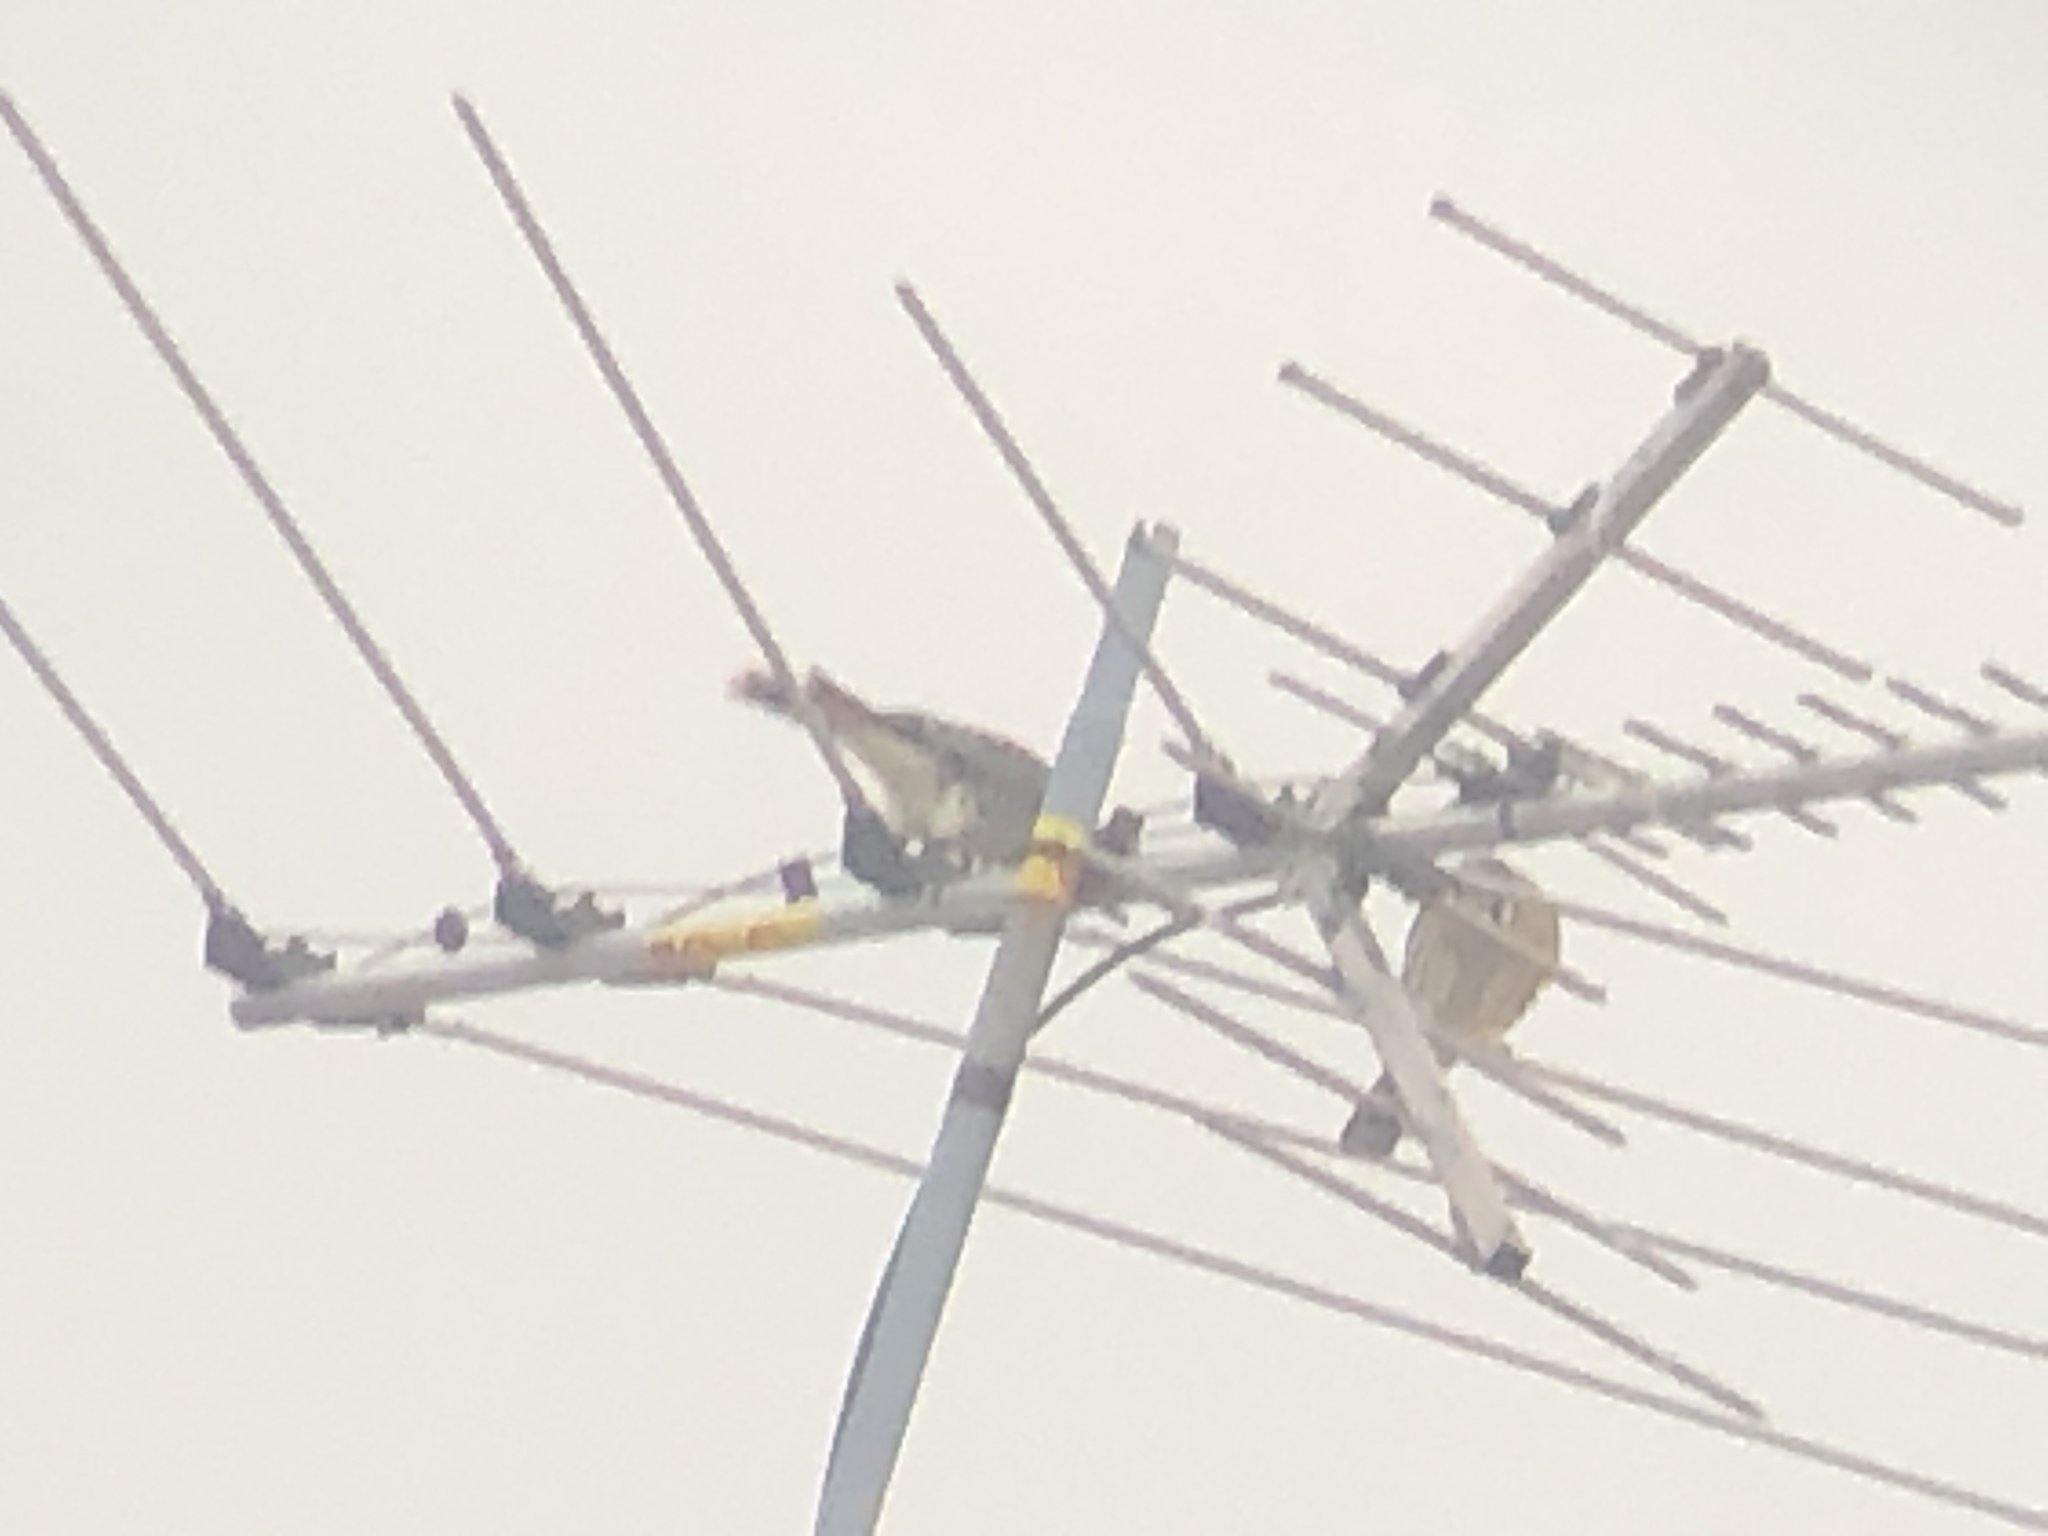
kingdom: Animalia
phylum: Chordata
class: Aves
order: Falconiformes
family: Falconidae
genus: Falco
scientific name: Falco sparverius
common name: American kestrel
